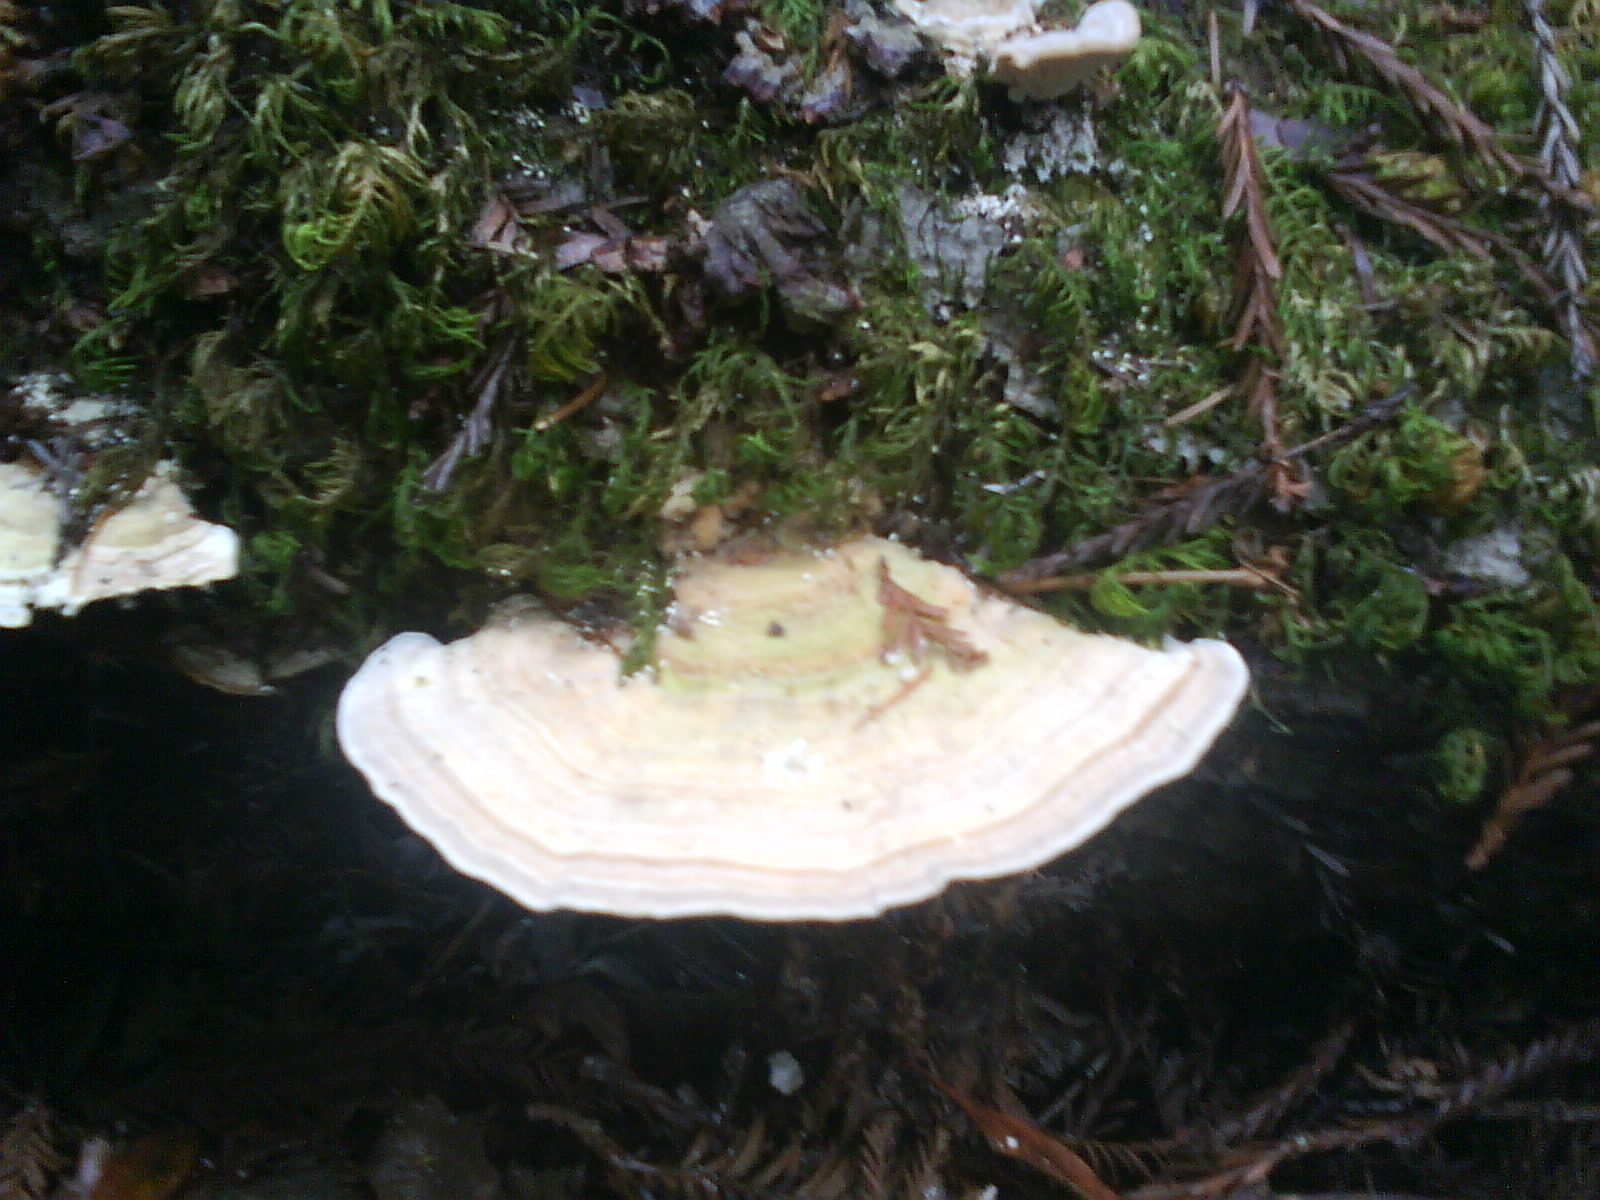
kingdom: Fungi
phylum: Basidiomycota
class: Agaricomycetes
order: Polyporales
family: Polyporaceae
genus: Lenzites
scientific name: Lenzites betulinus
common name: Birch mazegill
